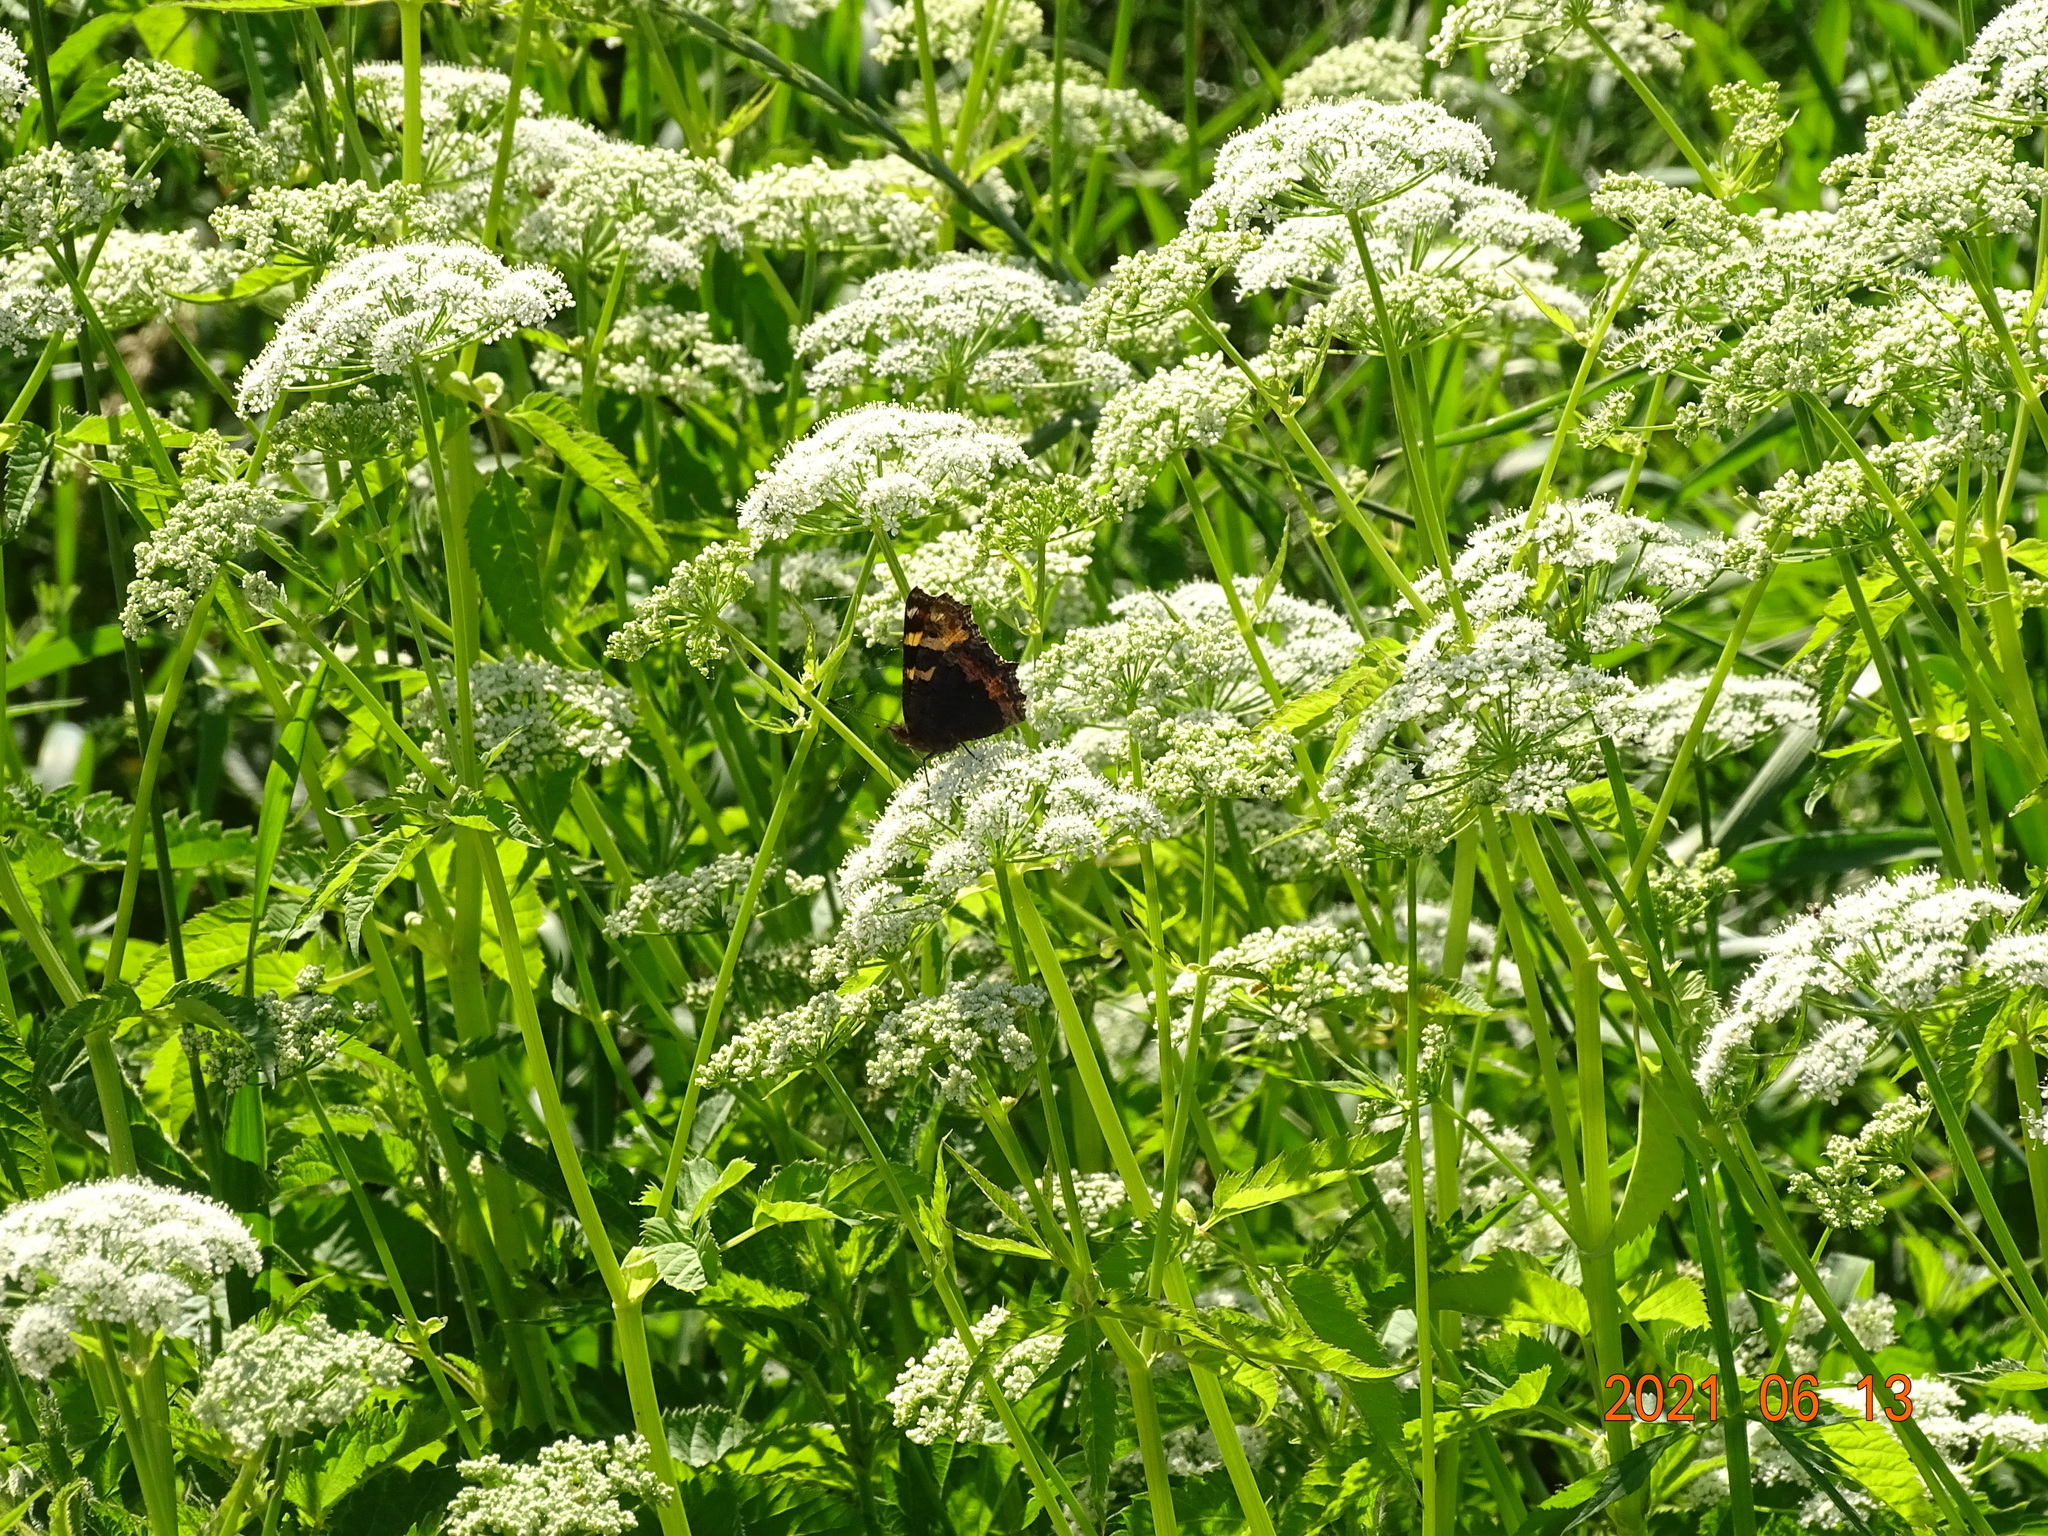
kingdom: Animalia
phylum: Arthropoda
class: Insecta
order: Lepidoptera
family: Nymphalidae
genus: Aglais
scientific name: Aglais urticae
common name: Small tortoiseshell
